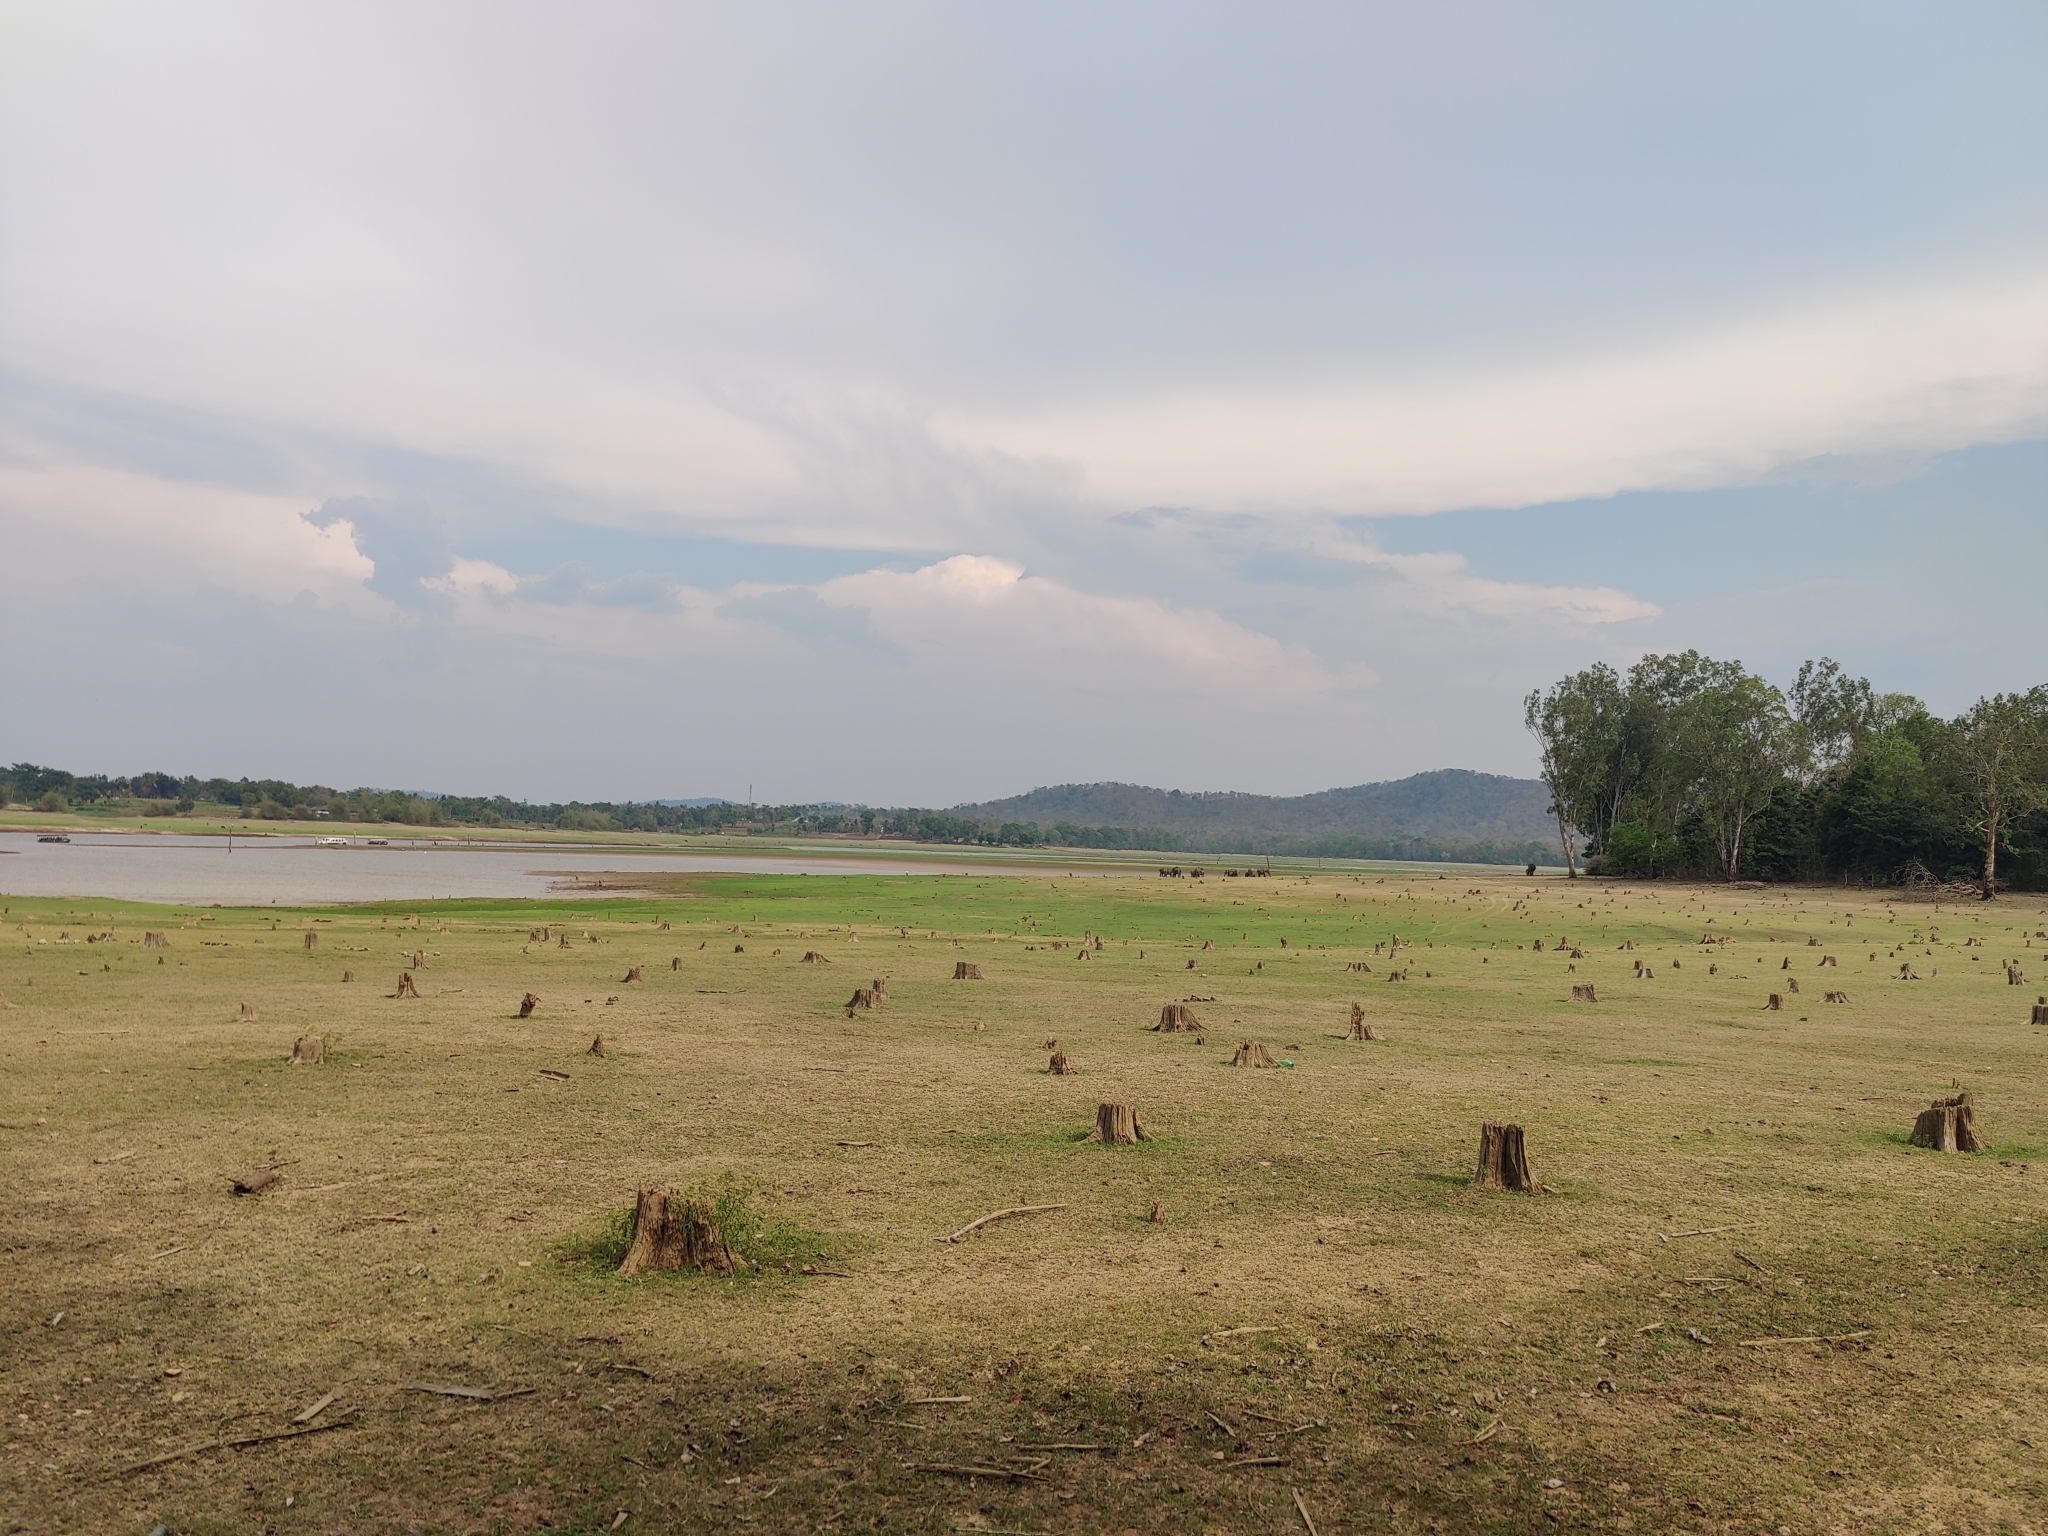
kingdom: Animalia
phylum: Chordata
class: Mammalia
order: Proboscidea
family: Elephantidae
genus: Elephas
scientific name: Elephas maximus
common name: Asian elephant
